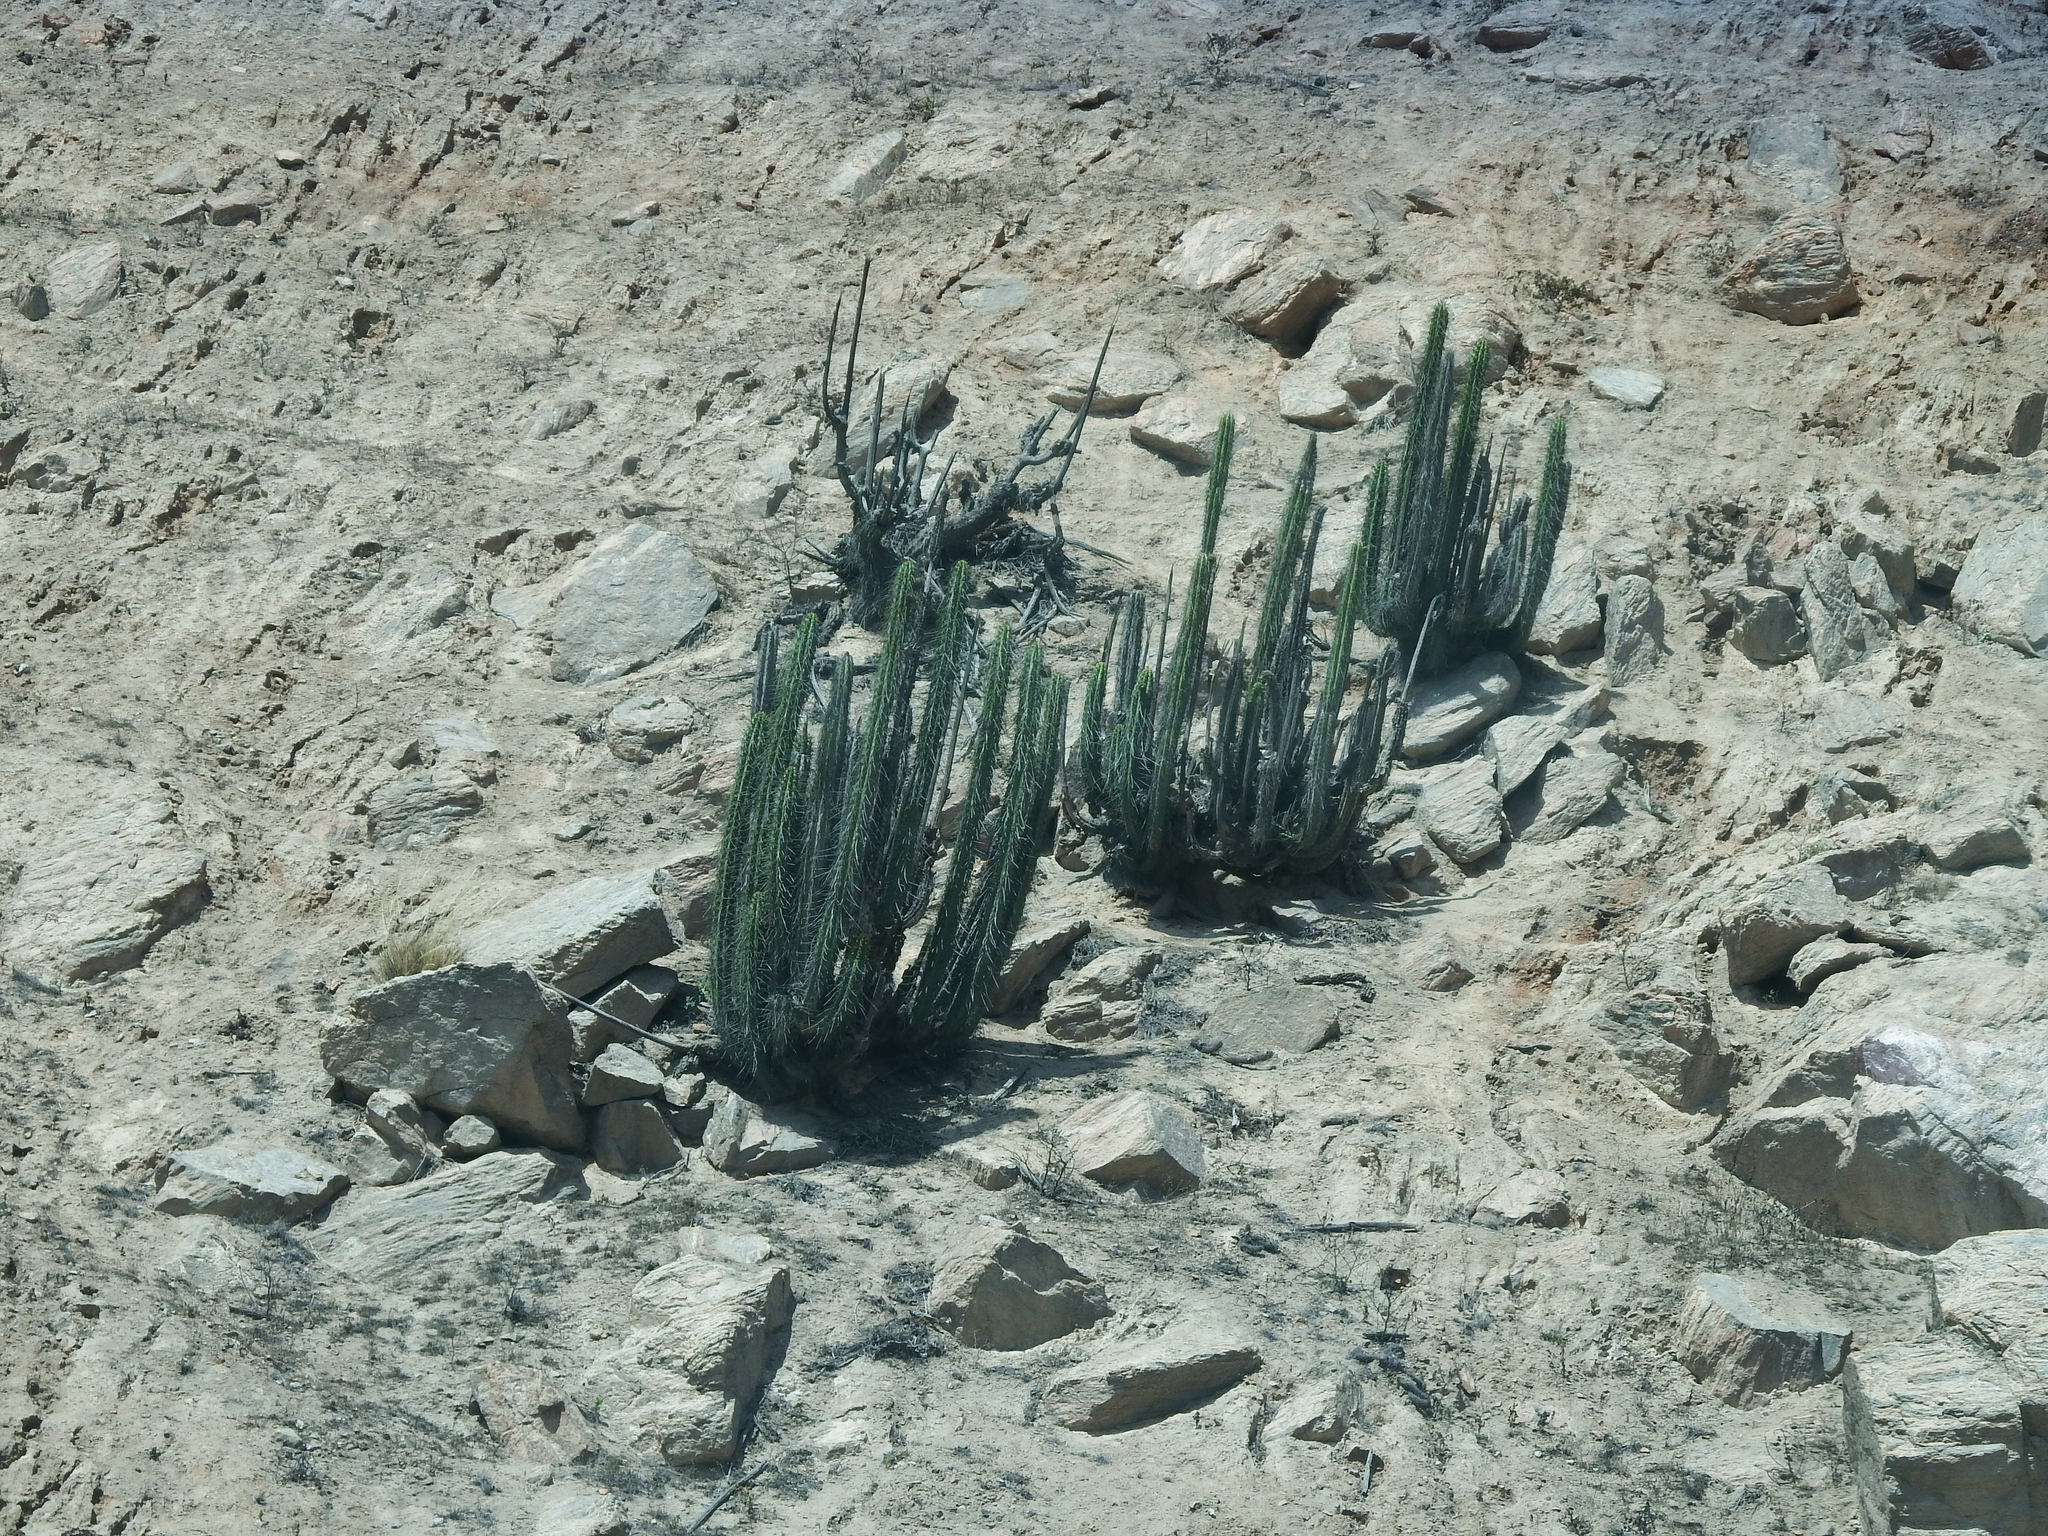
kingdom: Plantae
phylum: Tracheophyta
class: Magnoliopsida
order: Caryophyllales
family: Cactaceae
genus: Corryocactus
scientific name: Corryocactus brachypetalus
